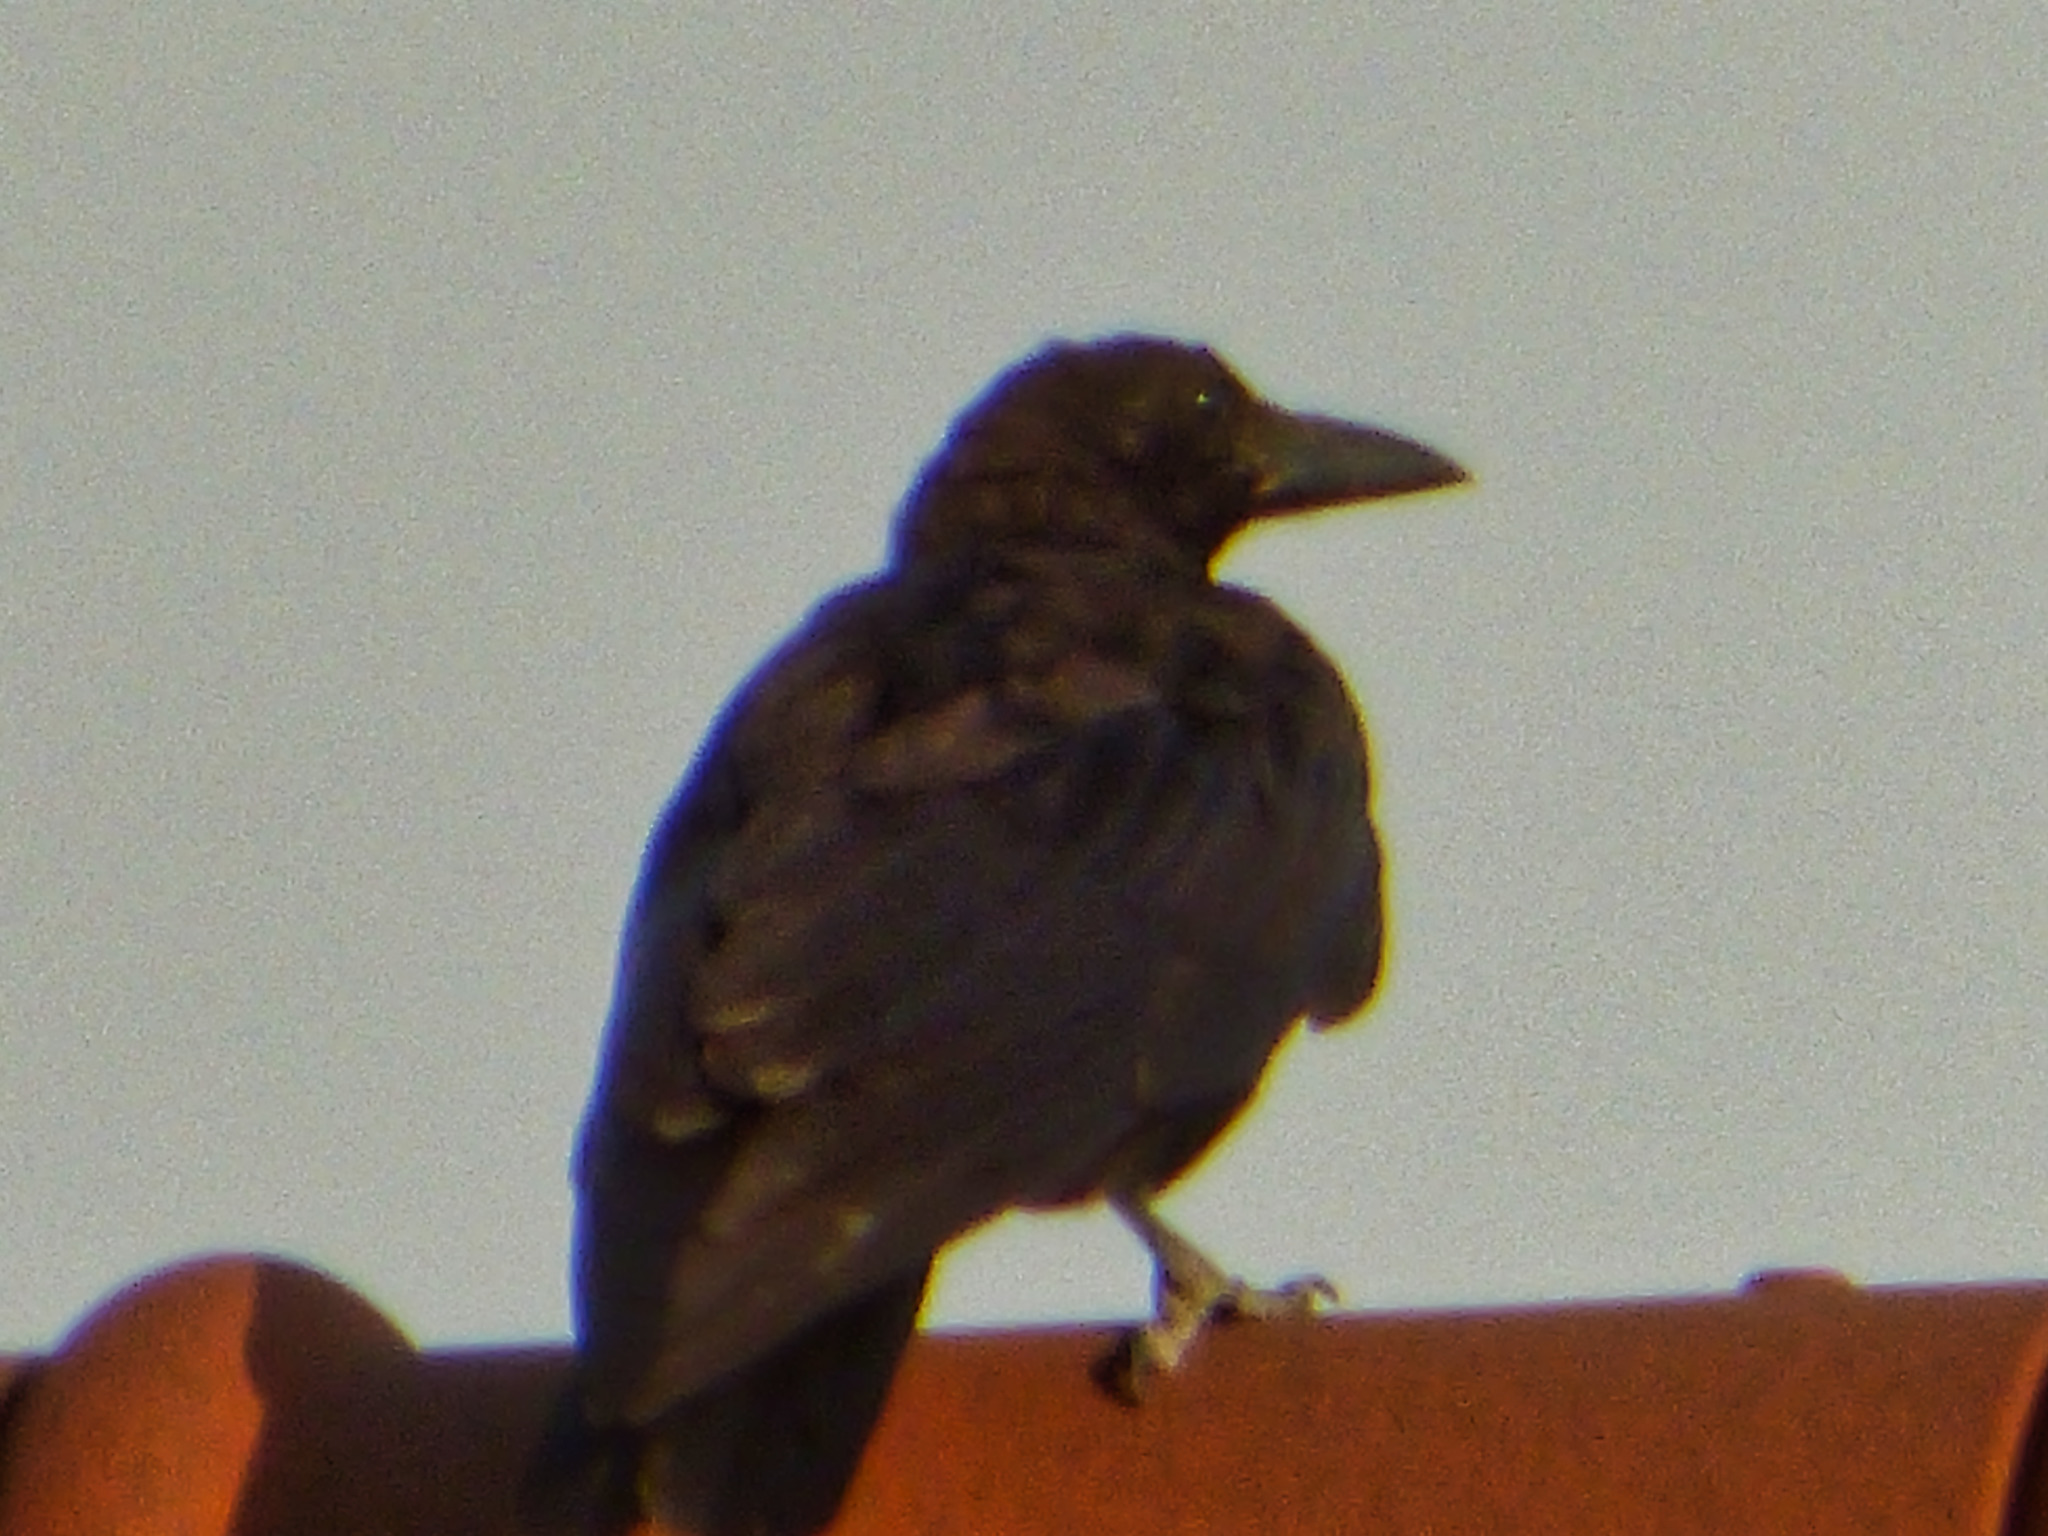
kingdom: Animalia
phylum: Chordata
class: Aves
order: Passeriformes
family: Corvidae
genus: Corvus
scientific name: Corvus corone
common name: Carrion crow
